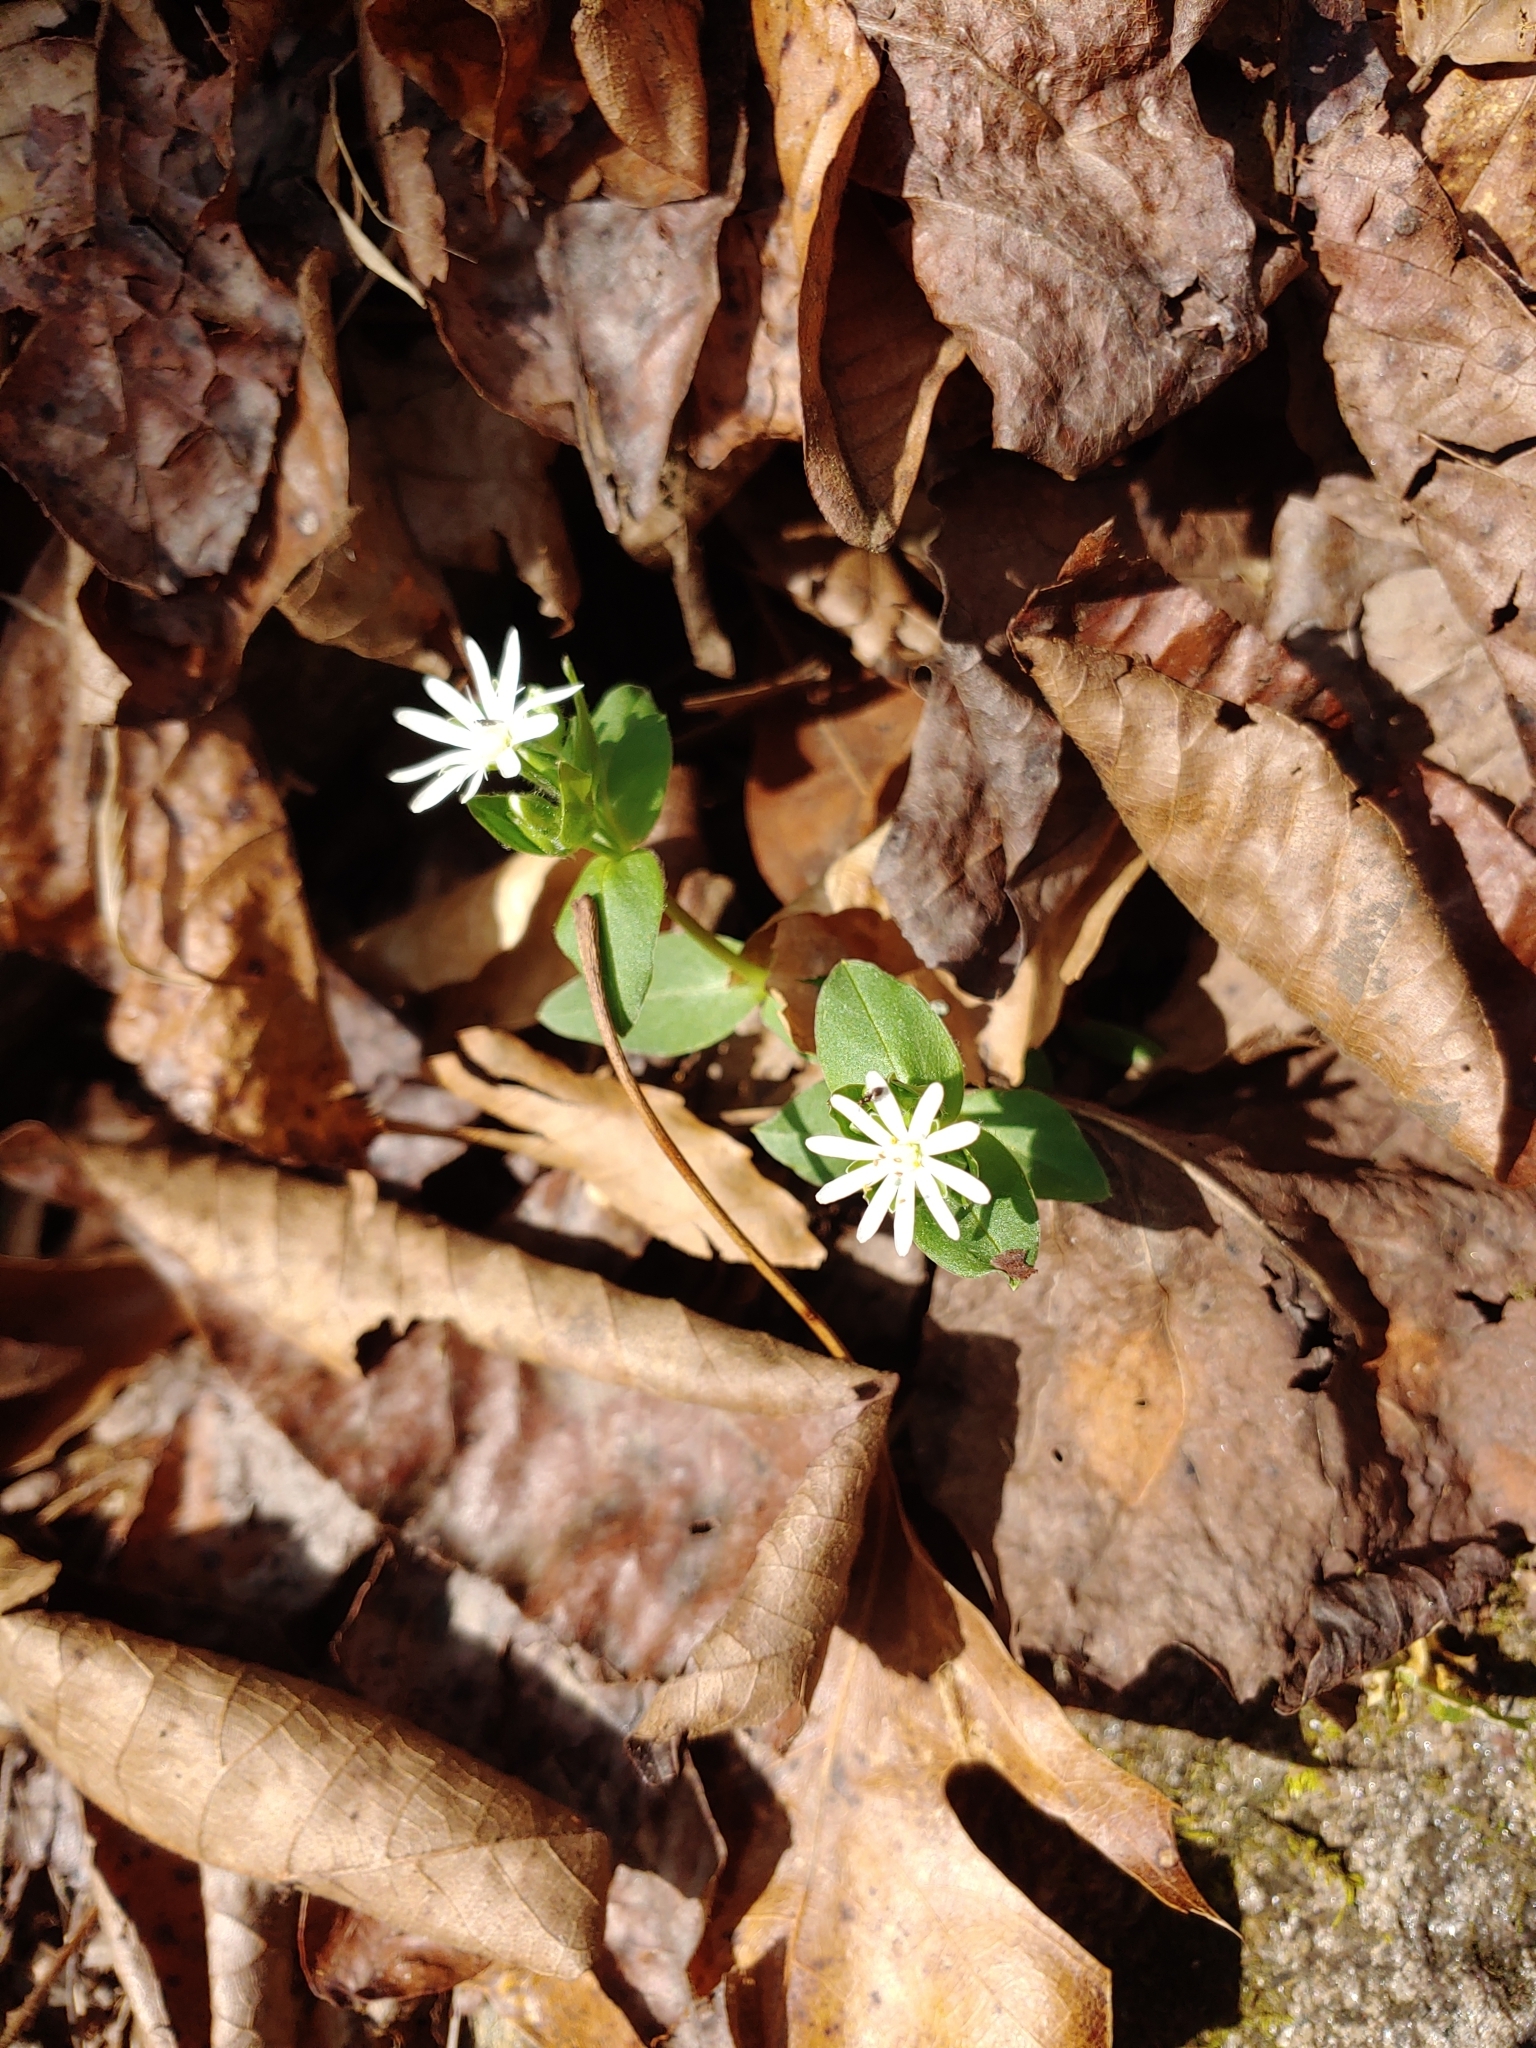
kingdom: Plantae
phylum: Tracheophyta
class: Magnoliopsida
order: Caryophyllales
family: Caryophyllaceae
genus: Stellaria
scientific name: Stellaria pubera
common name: Star chickweed
